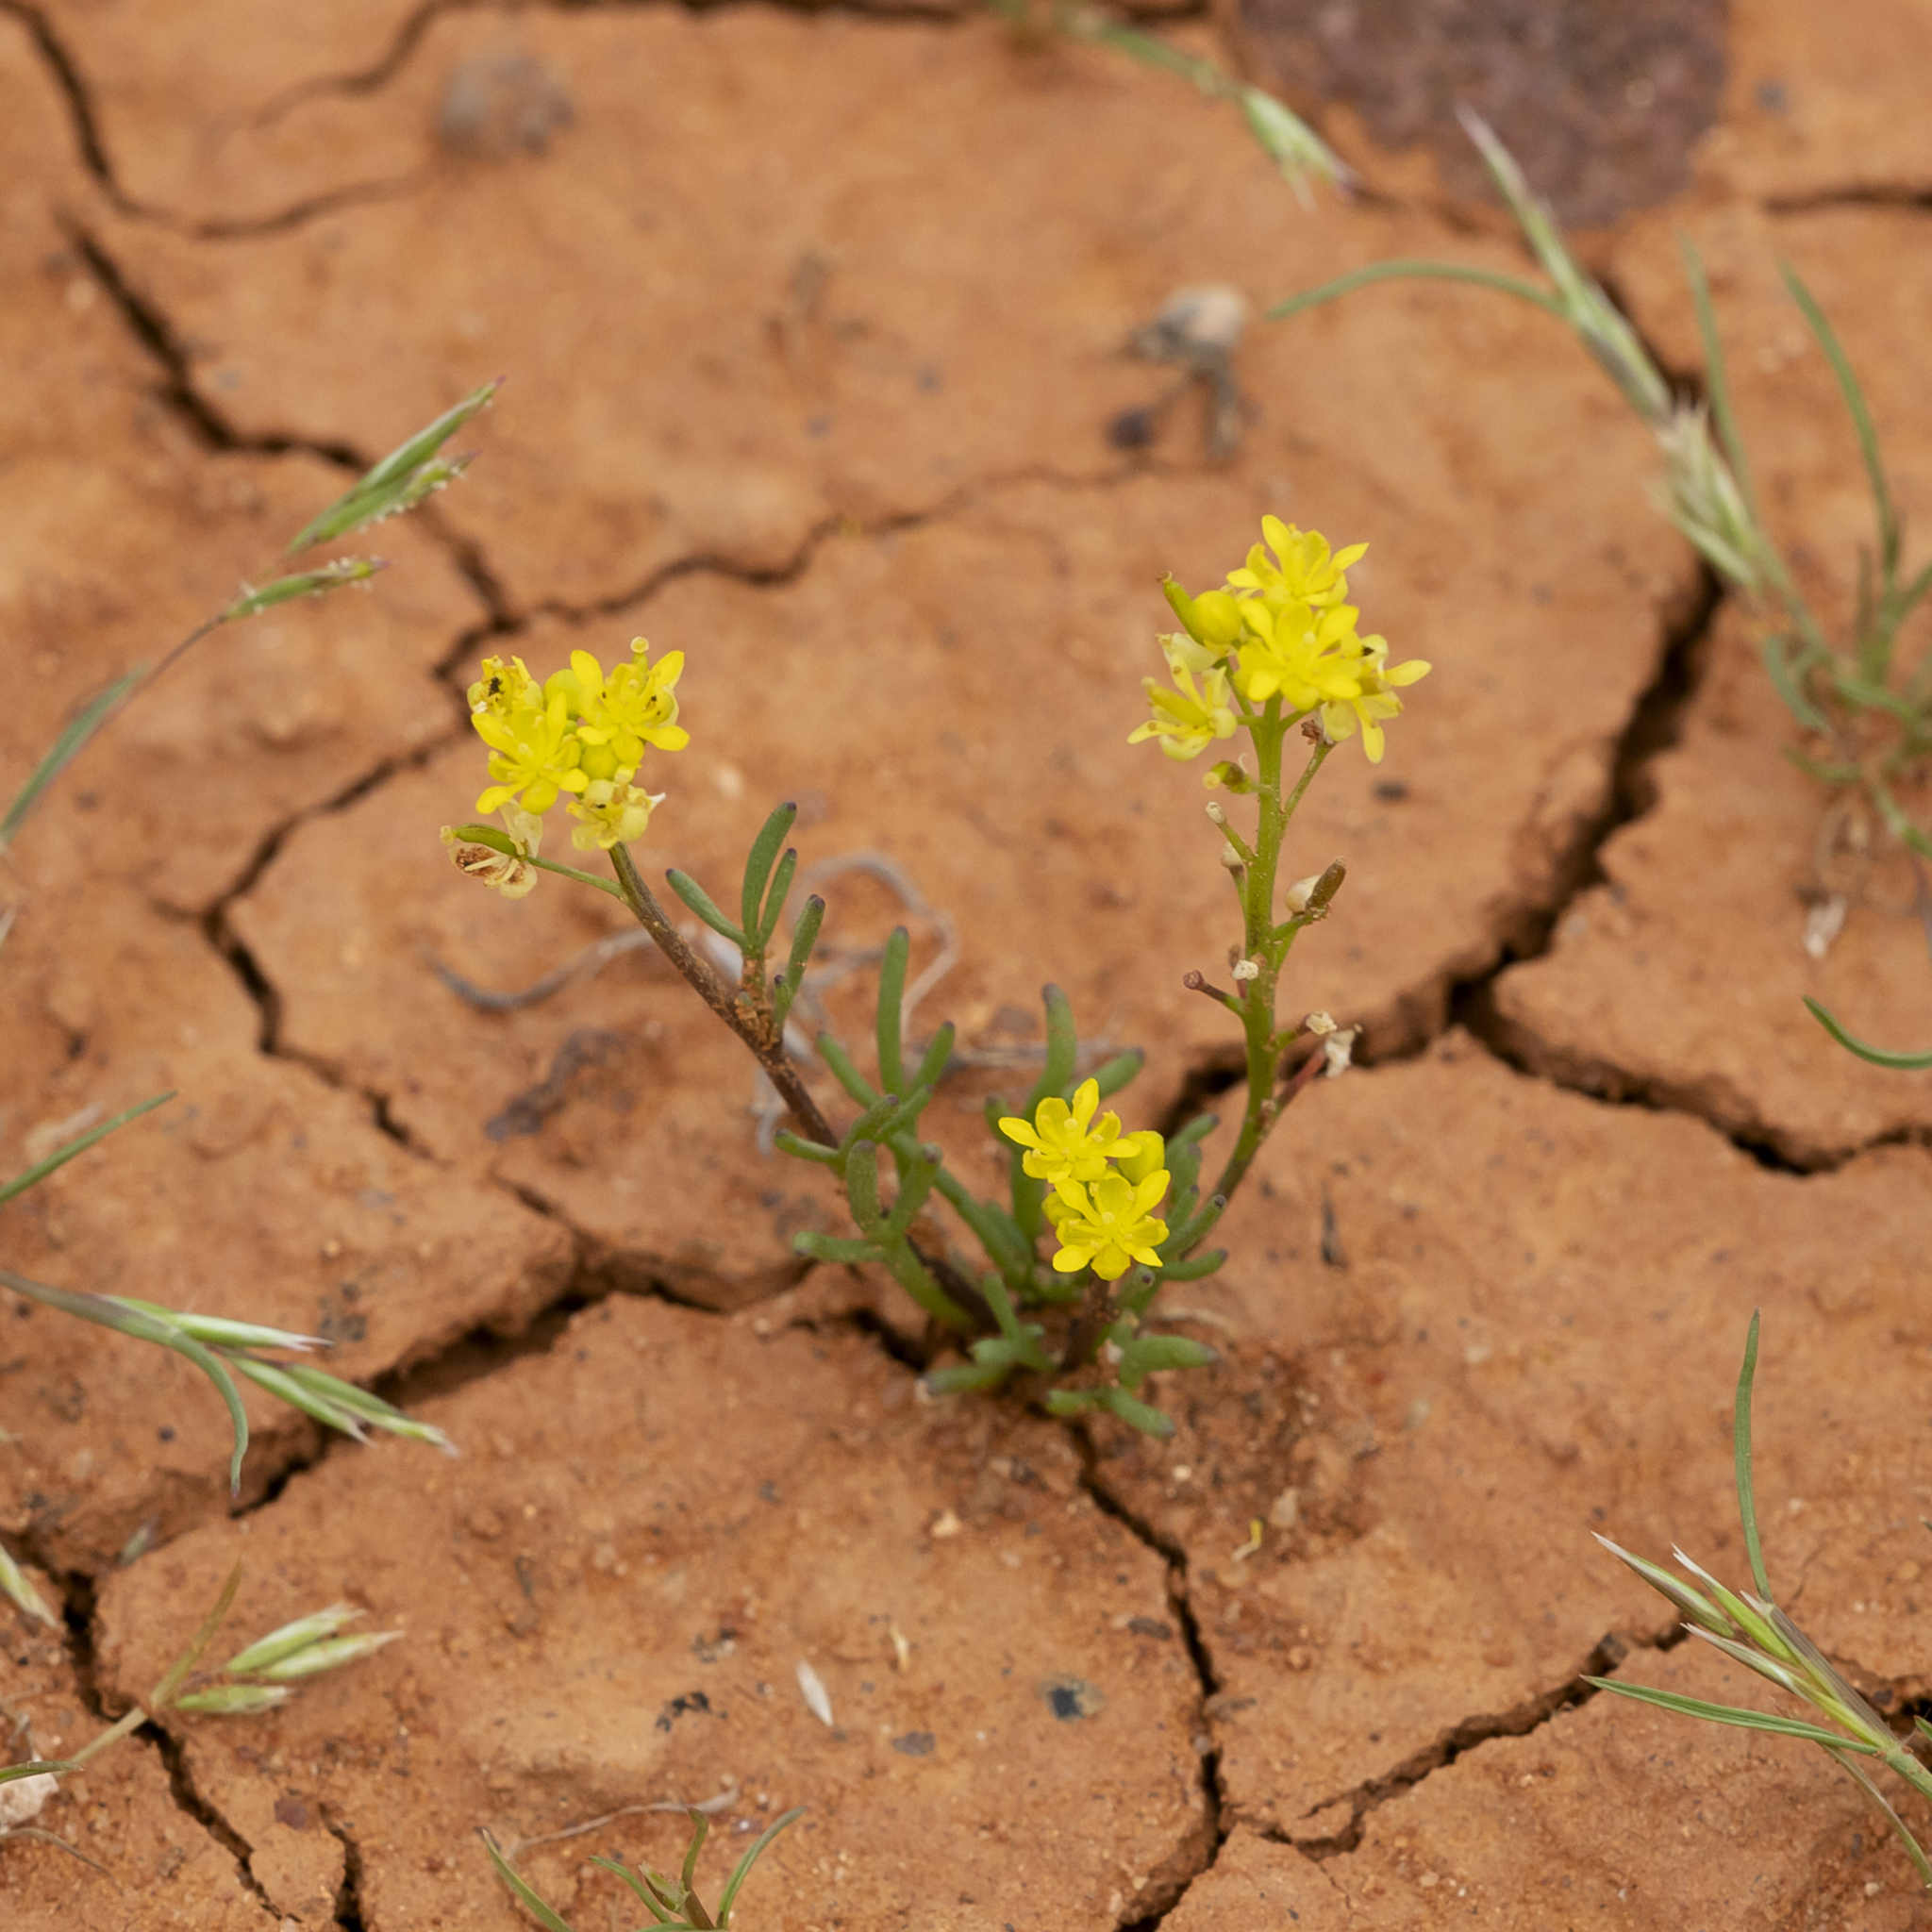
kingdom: Plantae
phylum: Tracheophyta
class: Magnoliopsida
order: Brassicales
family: Brassicaceae
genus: Arabidella
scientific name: Arabidella nasturtium
